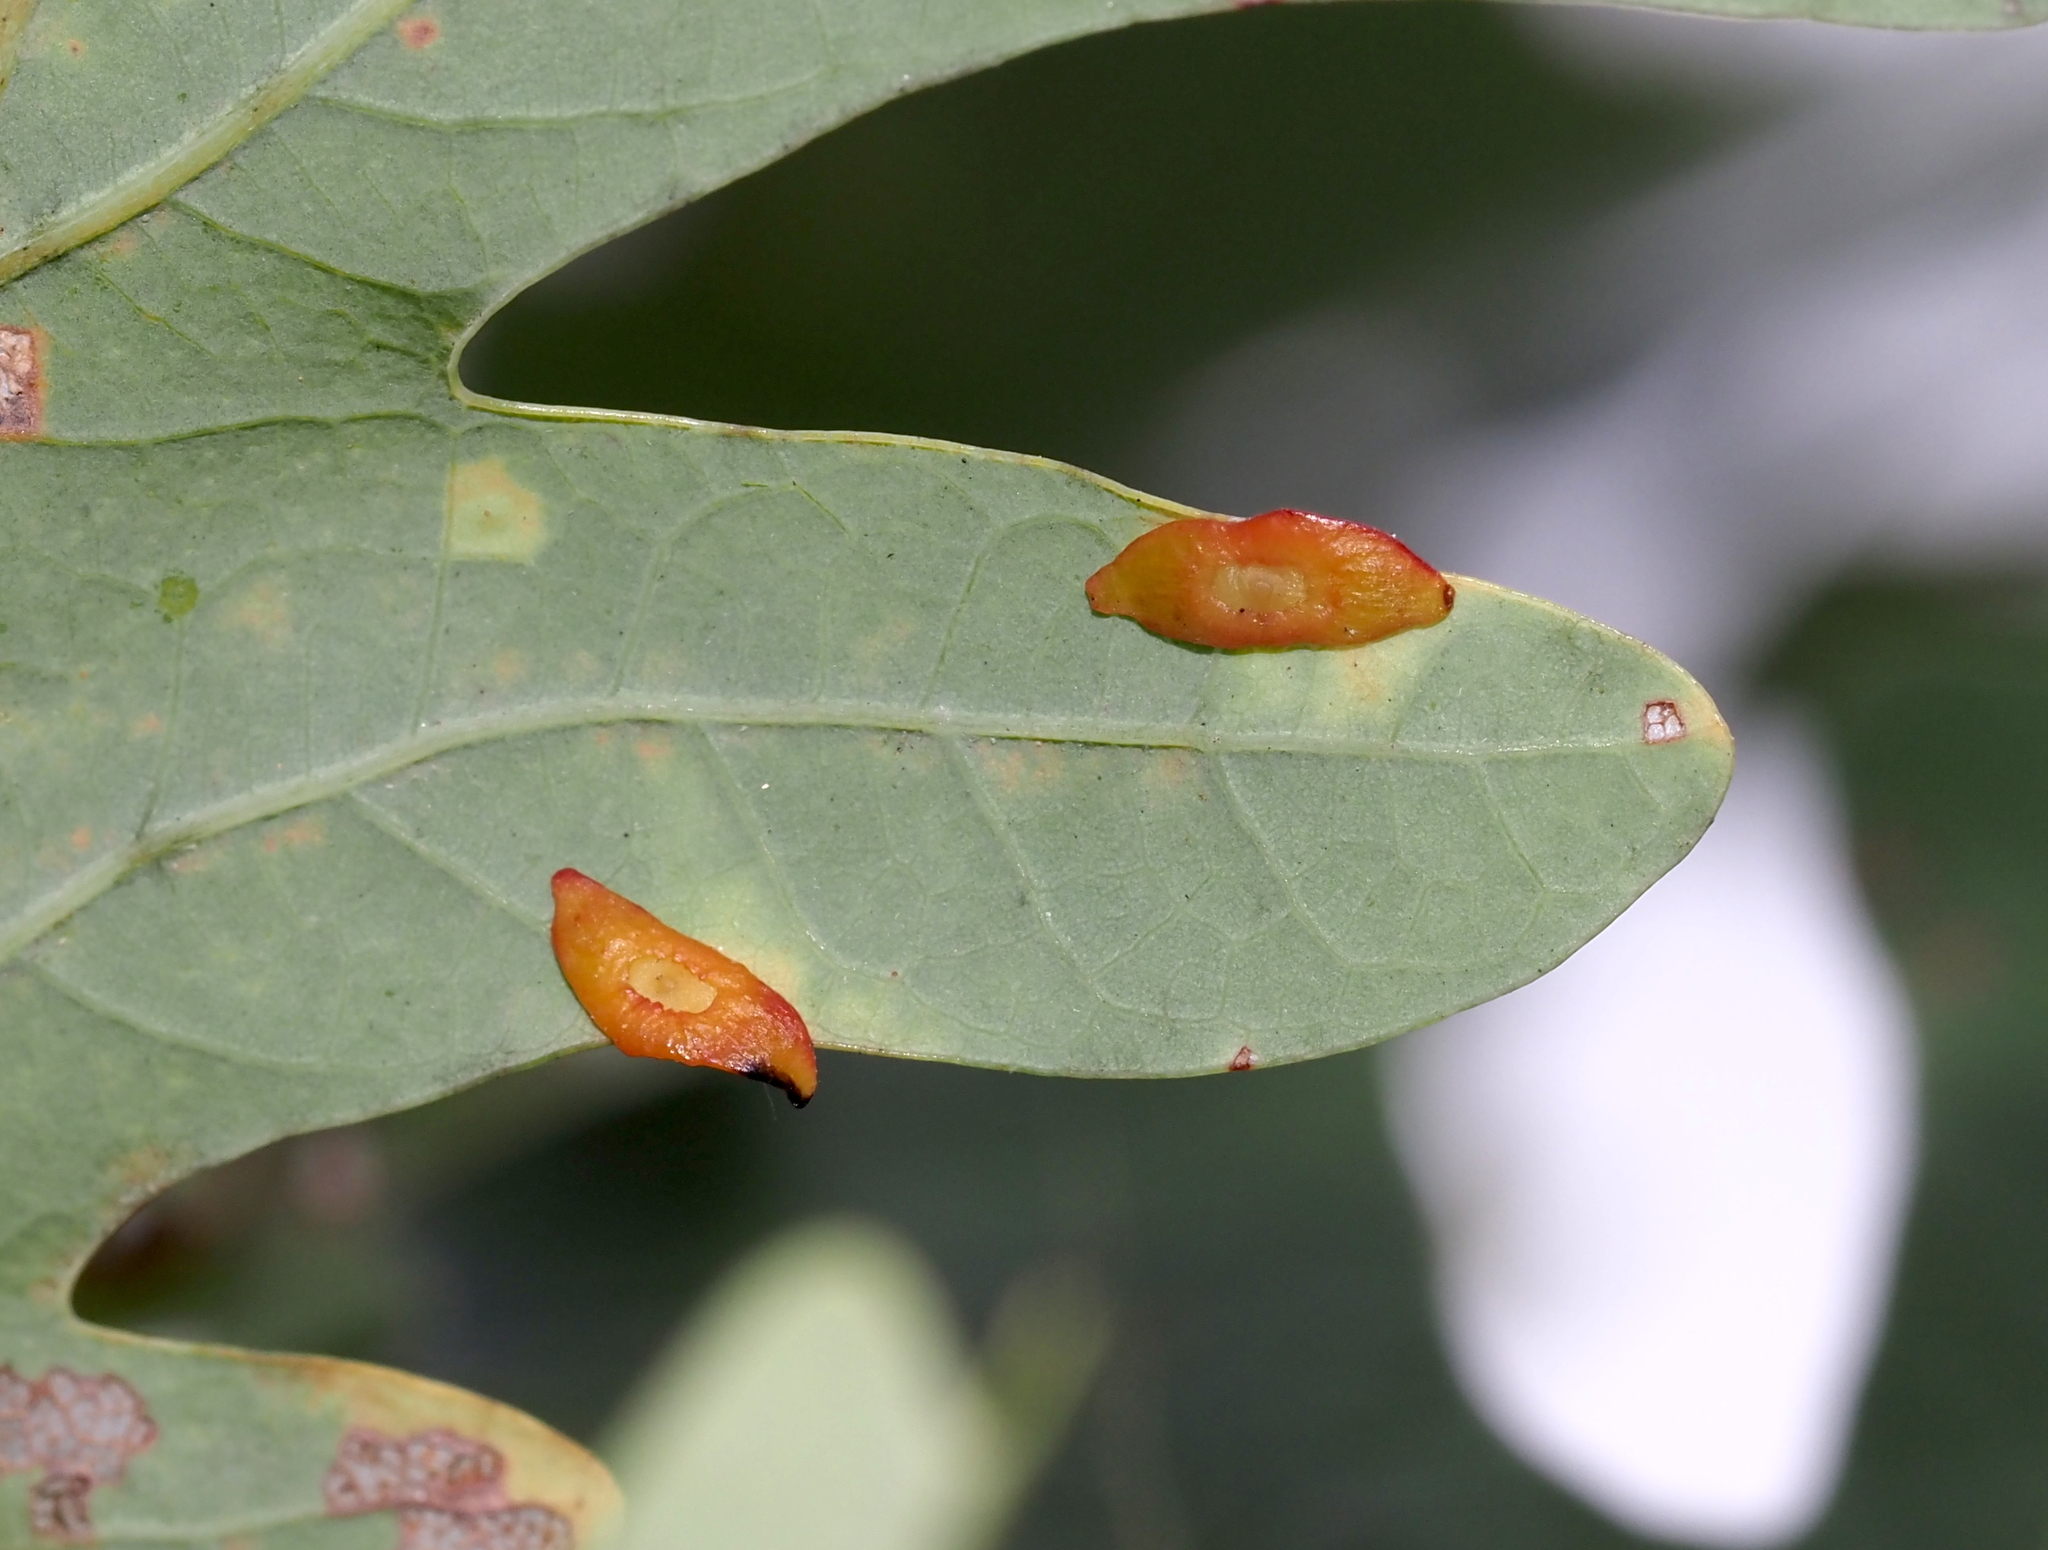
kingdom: Animalia
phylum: Arthropoda
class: Insecta
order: Hymenoptera
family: Cynipidae
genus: Phylloteras
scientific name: Phylloteras
